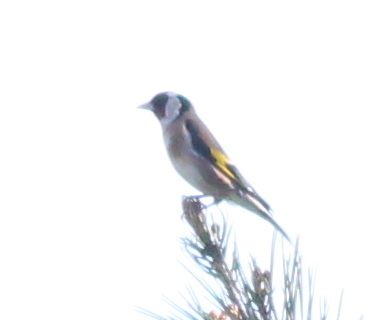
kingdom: Animalia
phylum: Chordata
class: Aves
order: Passeriformes
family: Fringillidae
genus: Carduelis
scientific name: Carduelis carduelis
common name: European goldfinch
